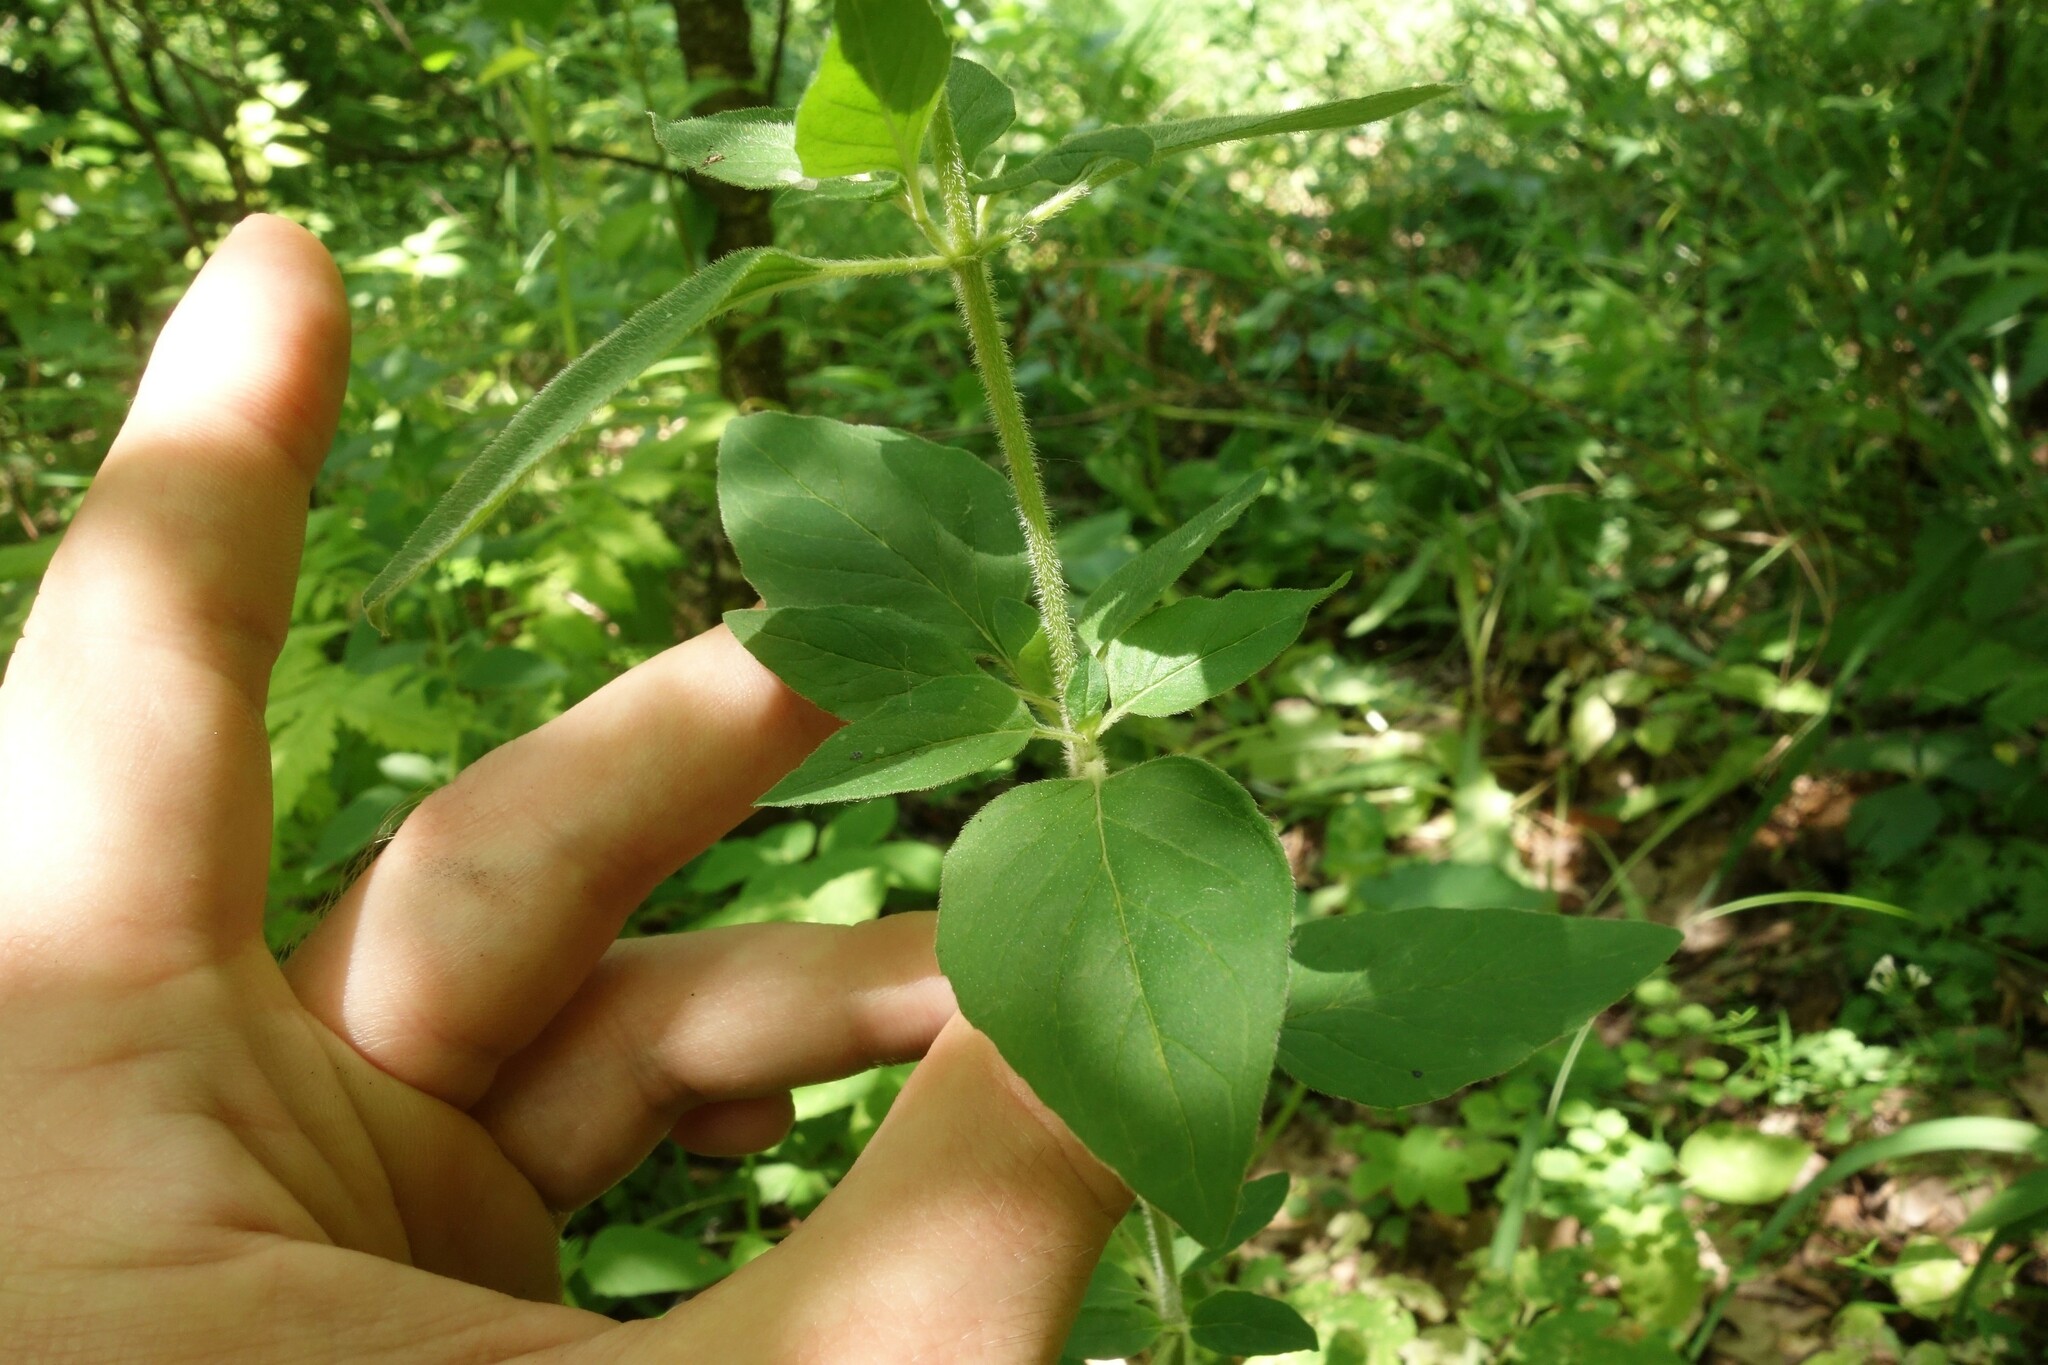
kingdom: Plantae
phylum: Tracheophyta
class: Magnoliopsida
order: Lamiales
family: Lamiaceae
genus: Origanum
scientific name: Origanum vulgare
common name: Wild marjoram
